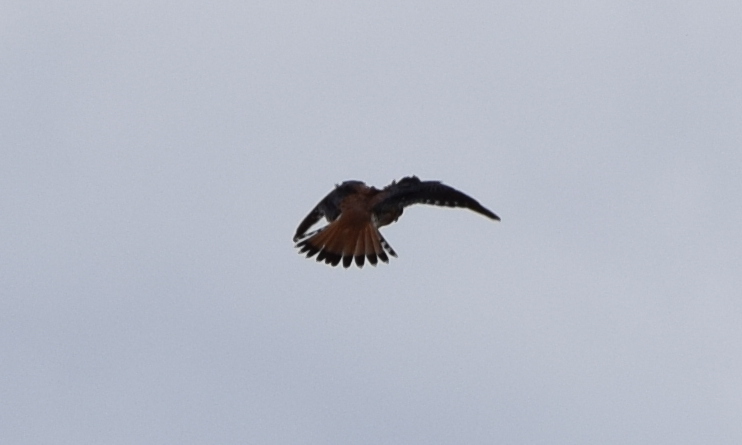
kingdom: Animalia
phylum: Chordata
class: Aves
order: Falconiformes
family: Falconidae
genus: Falco
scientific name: Falco sparverius
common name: American kestrel
